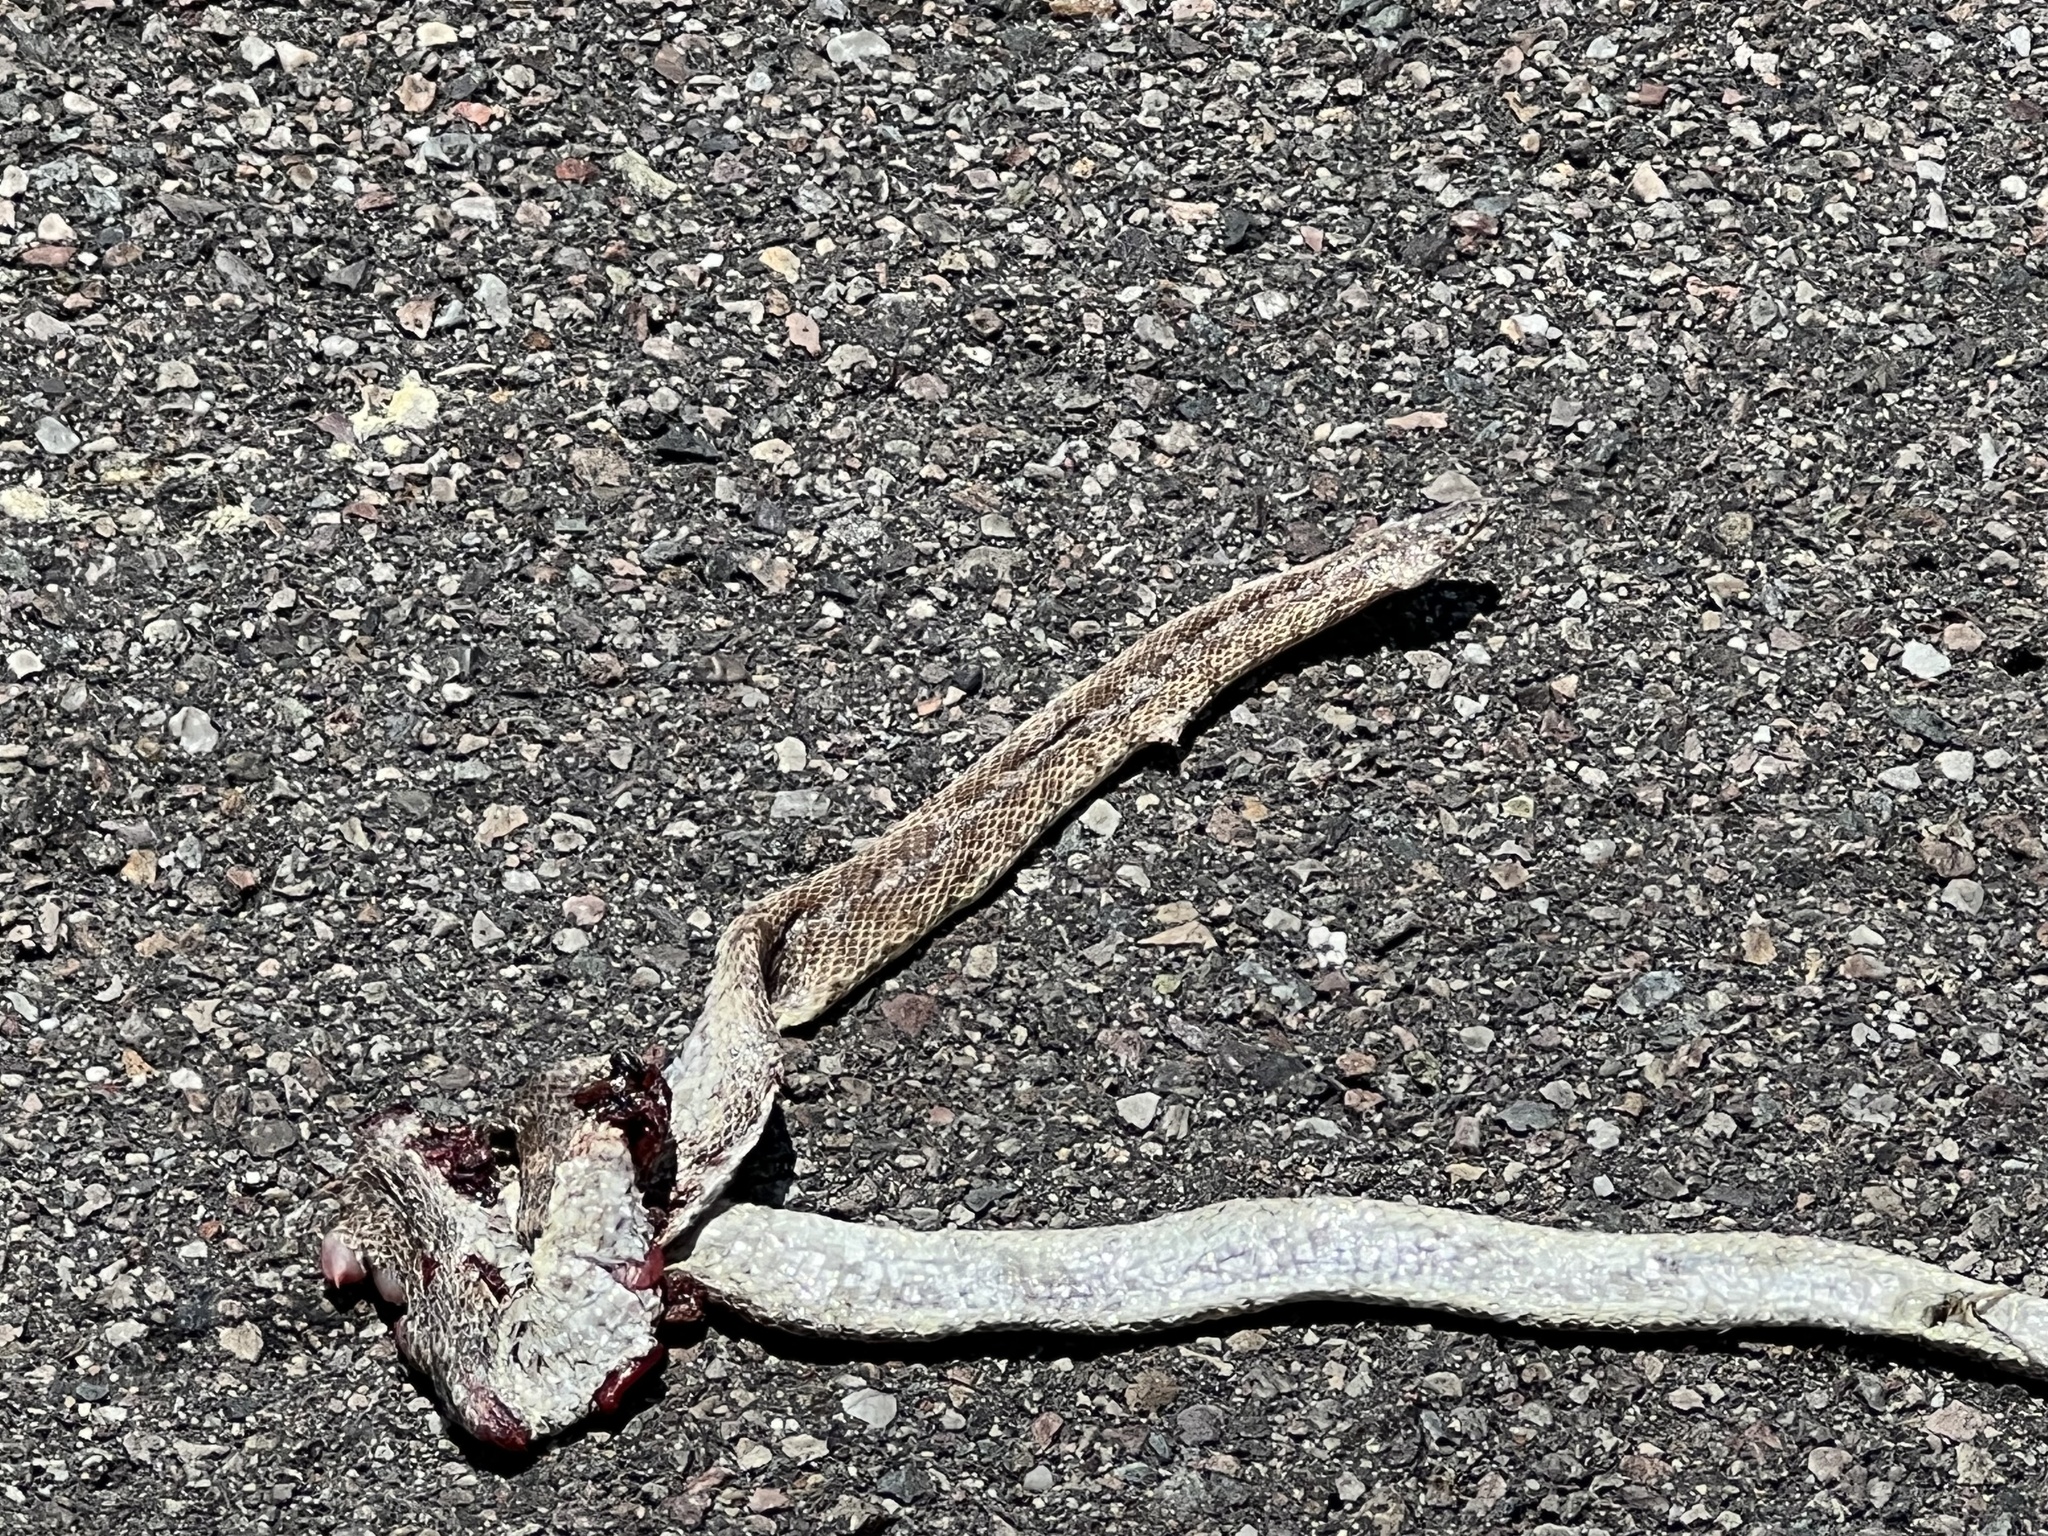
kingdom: Animalia
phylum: Chordata
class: Squamata
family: Colubridae
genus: Arizona
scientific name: Arizona elegans
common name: Glossy snake
